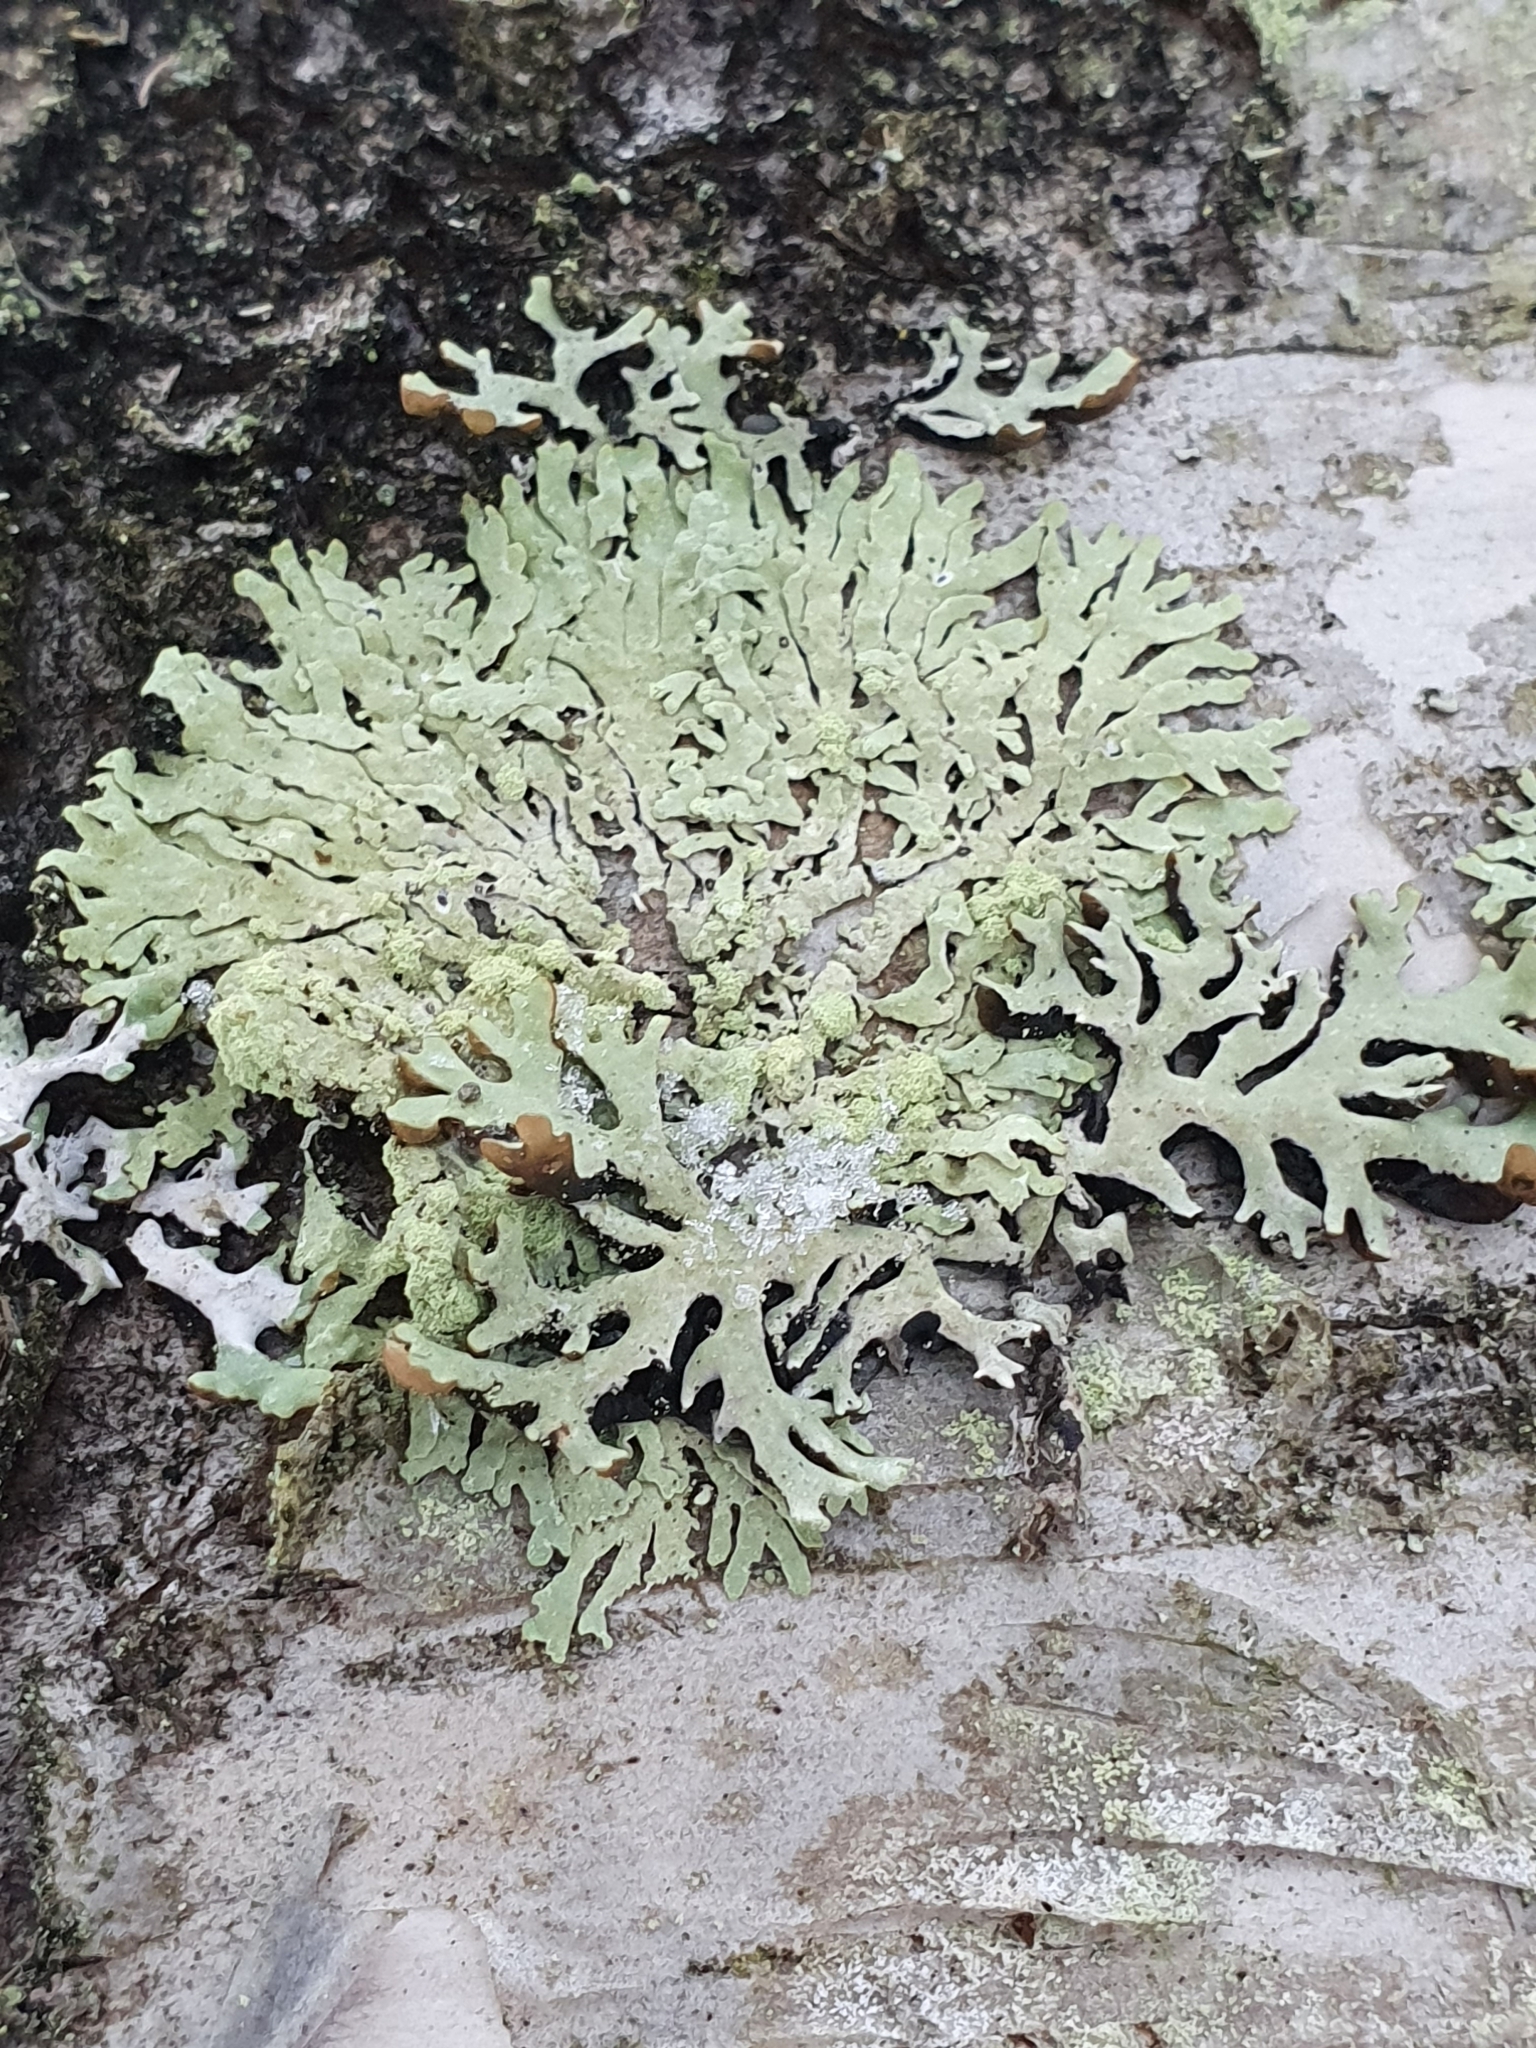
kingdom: Fungi
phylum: Ascomycota
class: Lecanoromycetes
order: Lecanorales
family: Parmeliaceae
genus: Parmeliopsis
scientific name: Parmeliopsis ambigua
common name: Green starburst lichen
